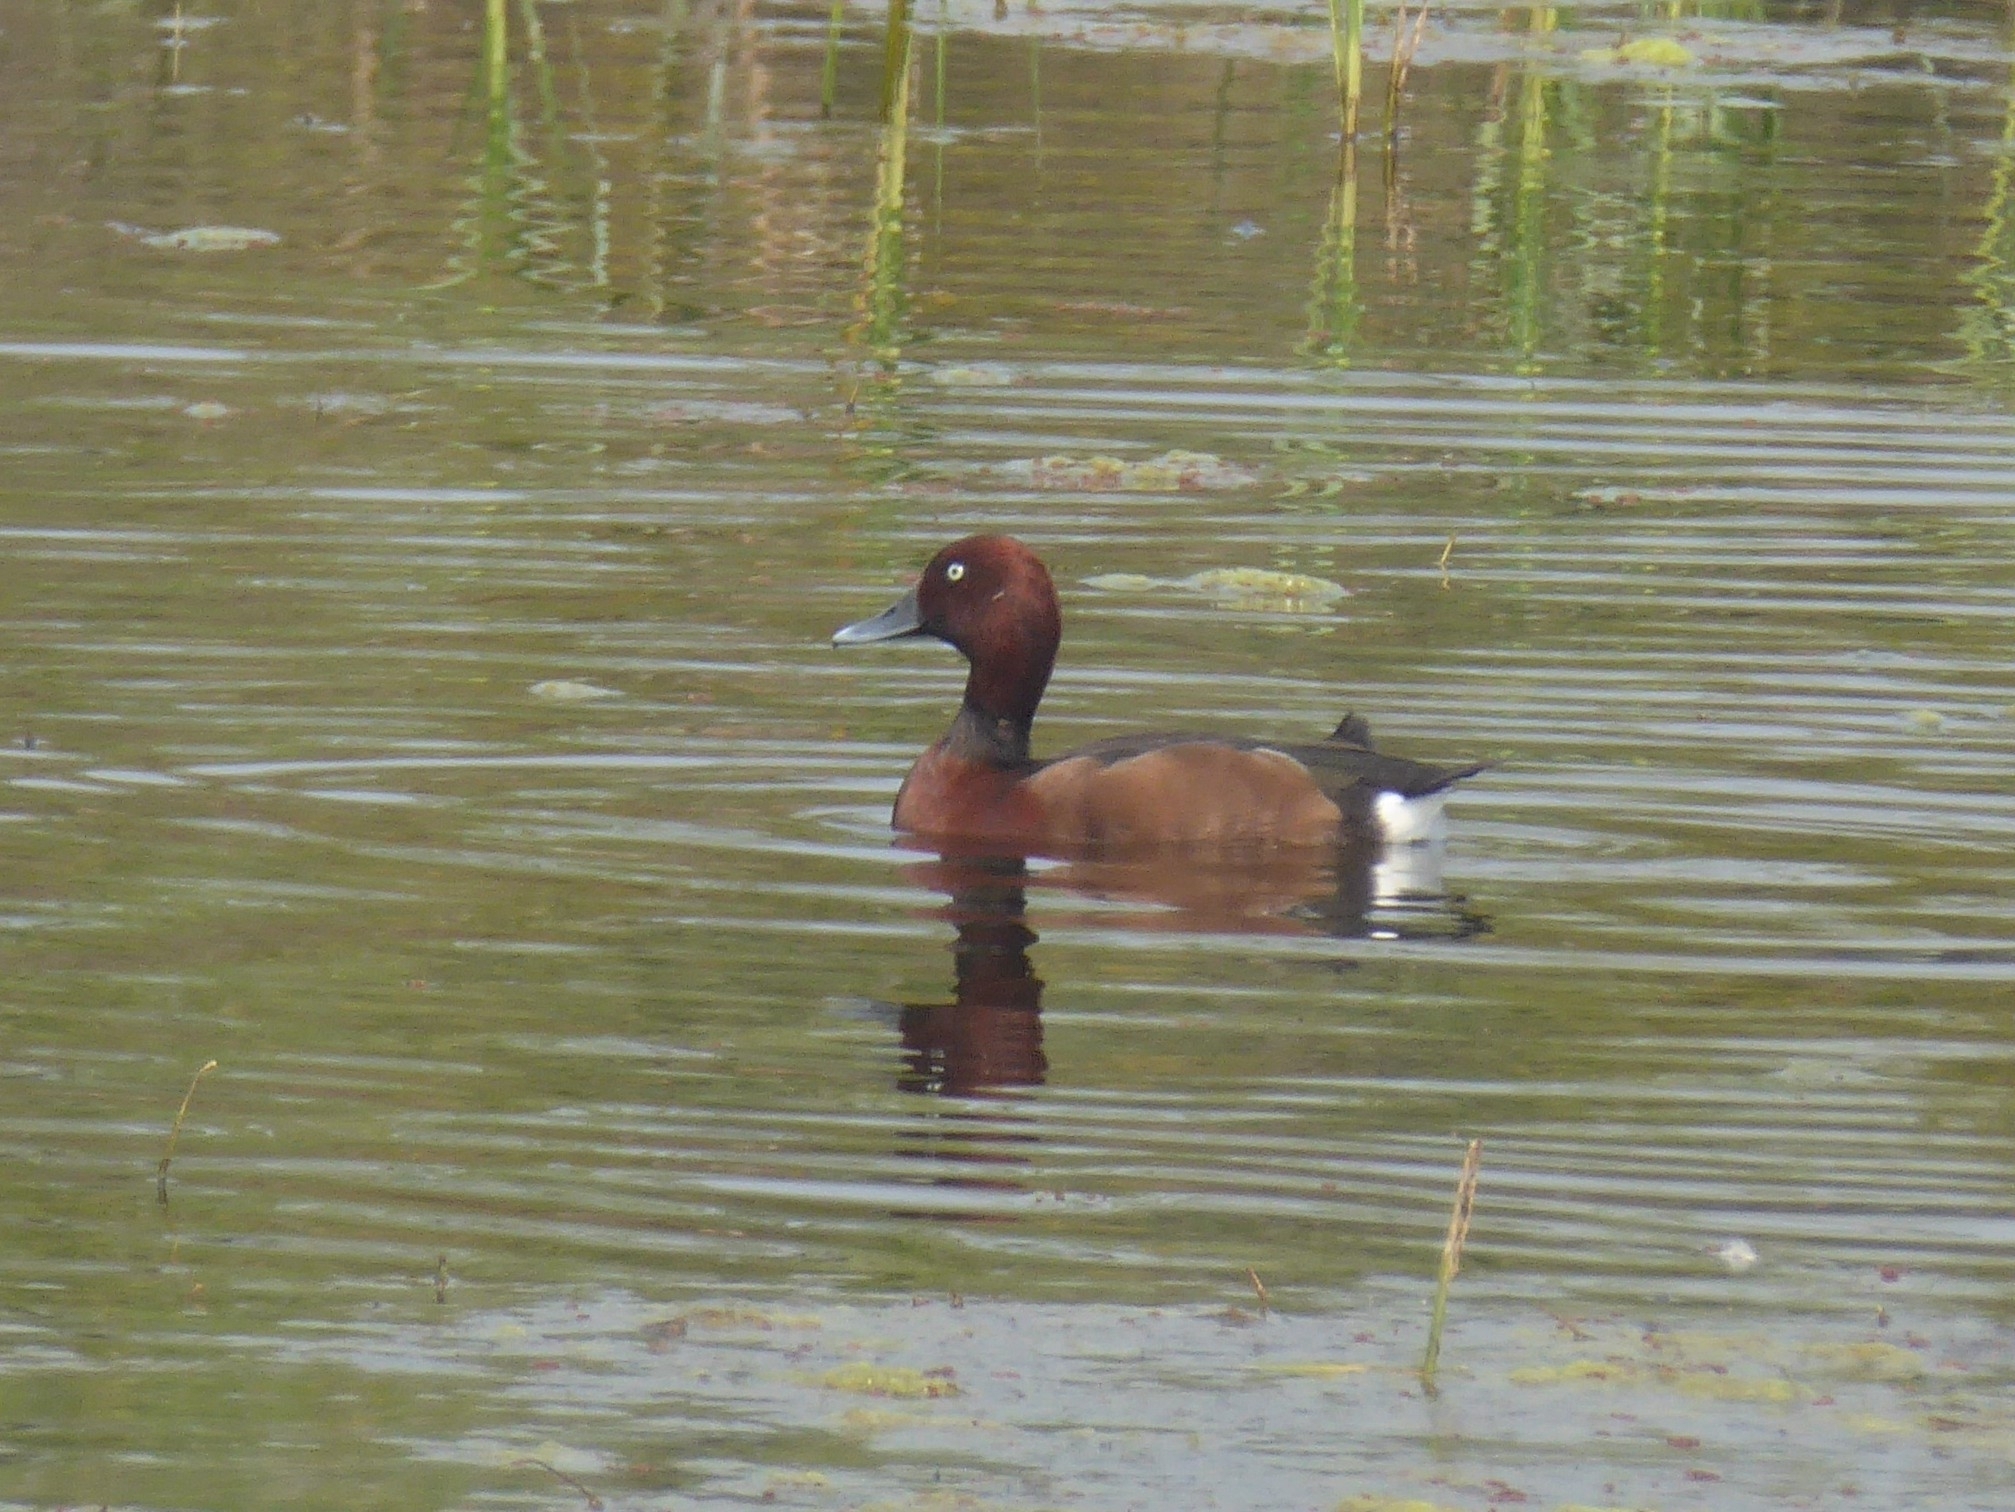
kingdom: Animalia
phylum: Chordata
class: Aves
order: Anseriformes
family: Anatidae
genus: Aythya
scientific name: Aythya nyroca
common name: Ferruginous duck
